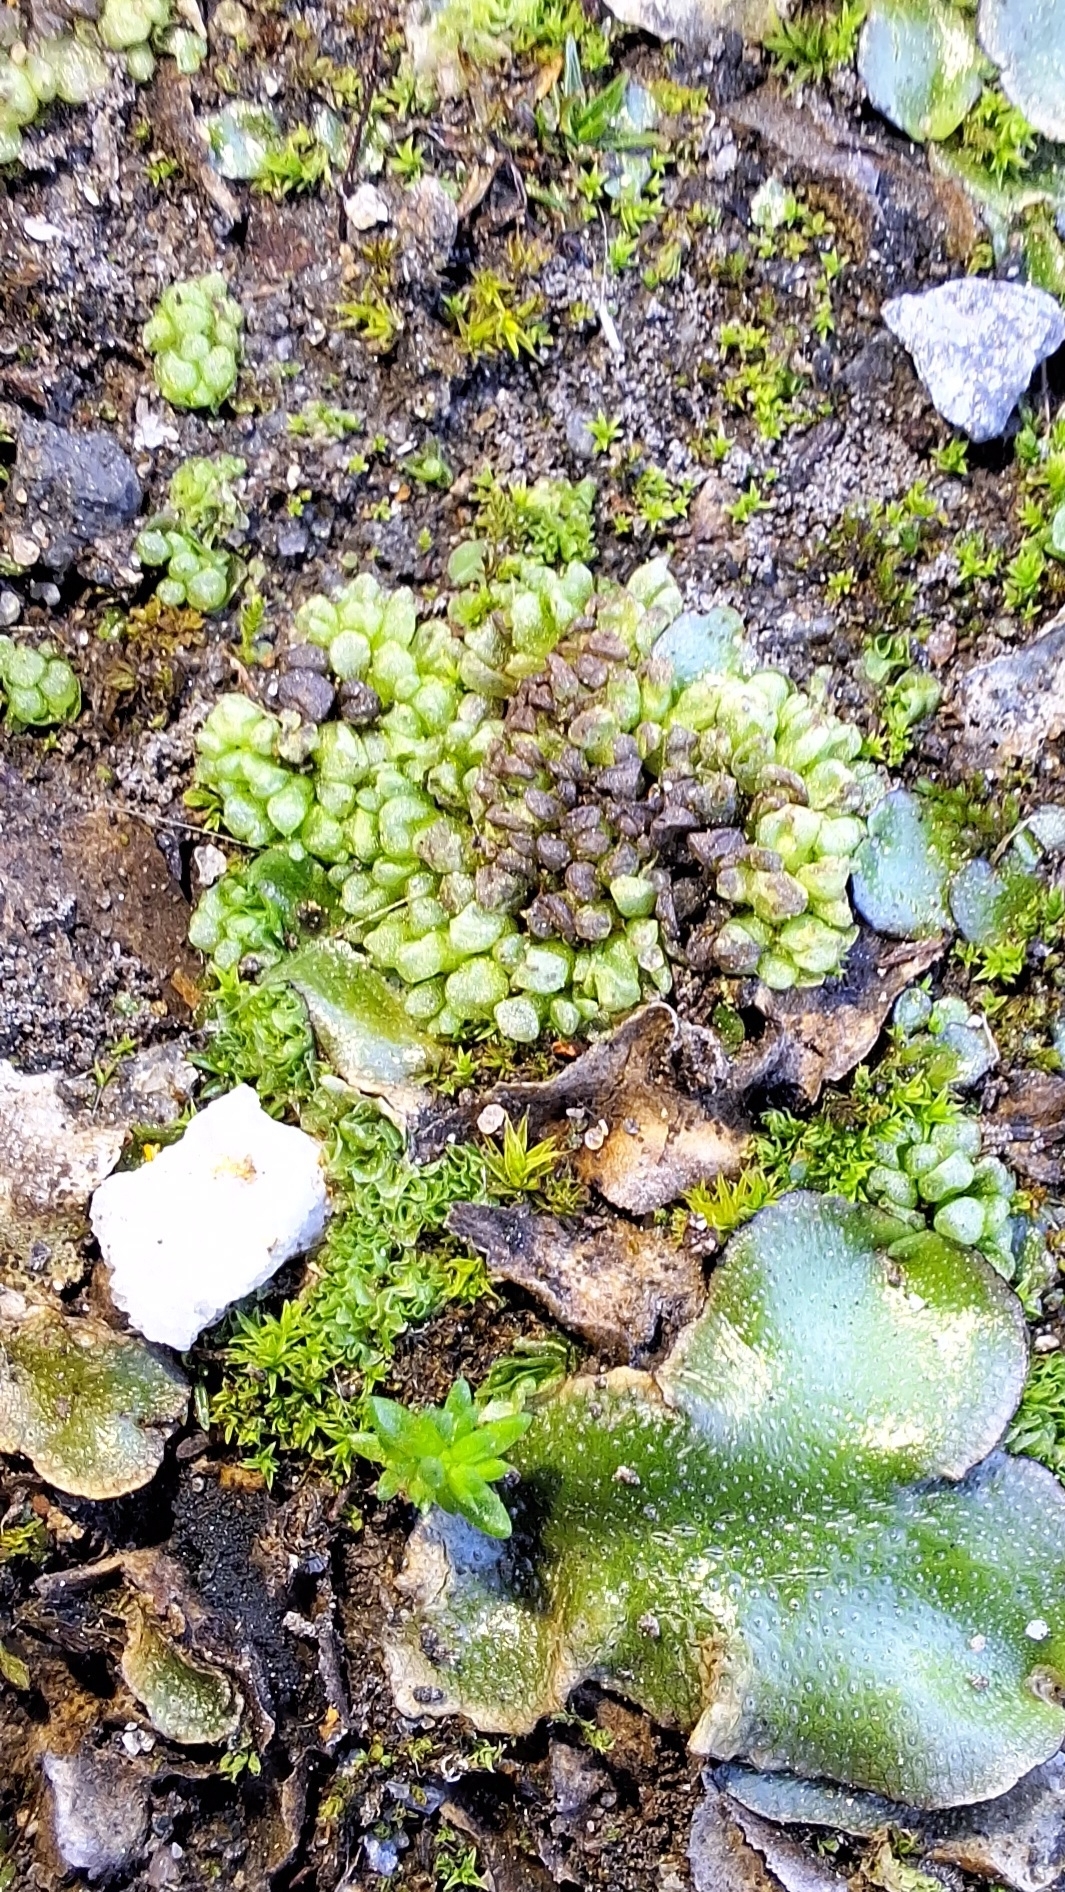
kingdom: Plantae
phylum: Marchantiophyta
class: Marchantiopsida
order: Sphaerocarpales
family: Sphaerocarpaceae
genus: Sphaerocarpos
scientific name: Sphaerocarpos texanus
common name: Texas balloonwort
